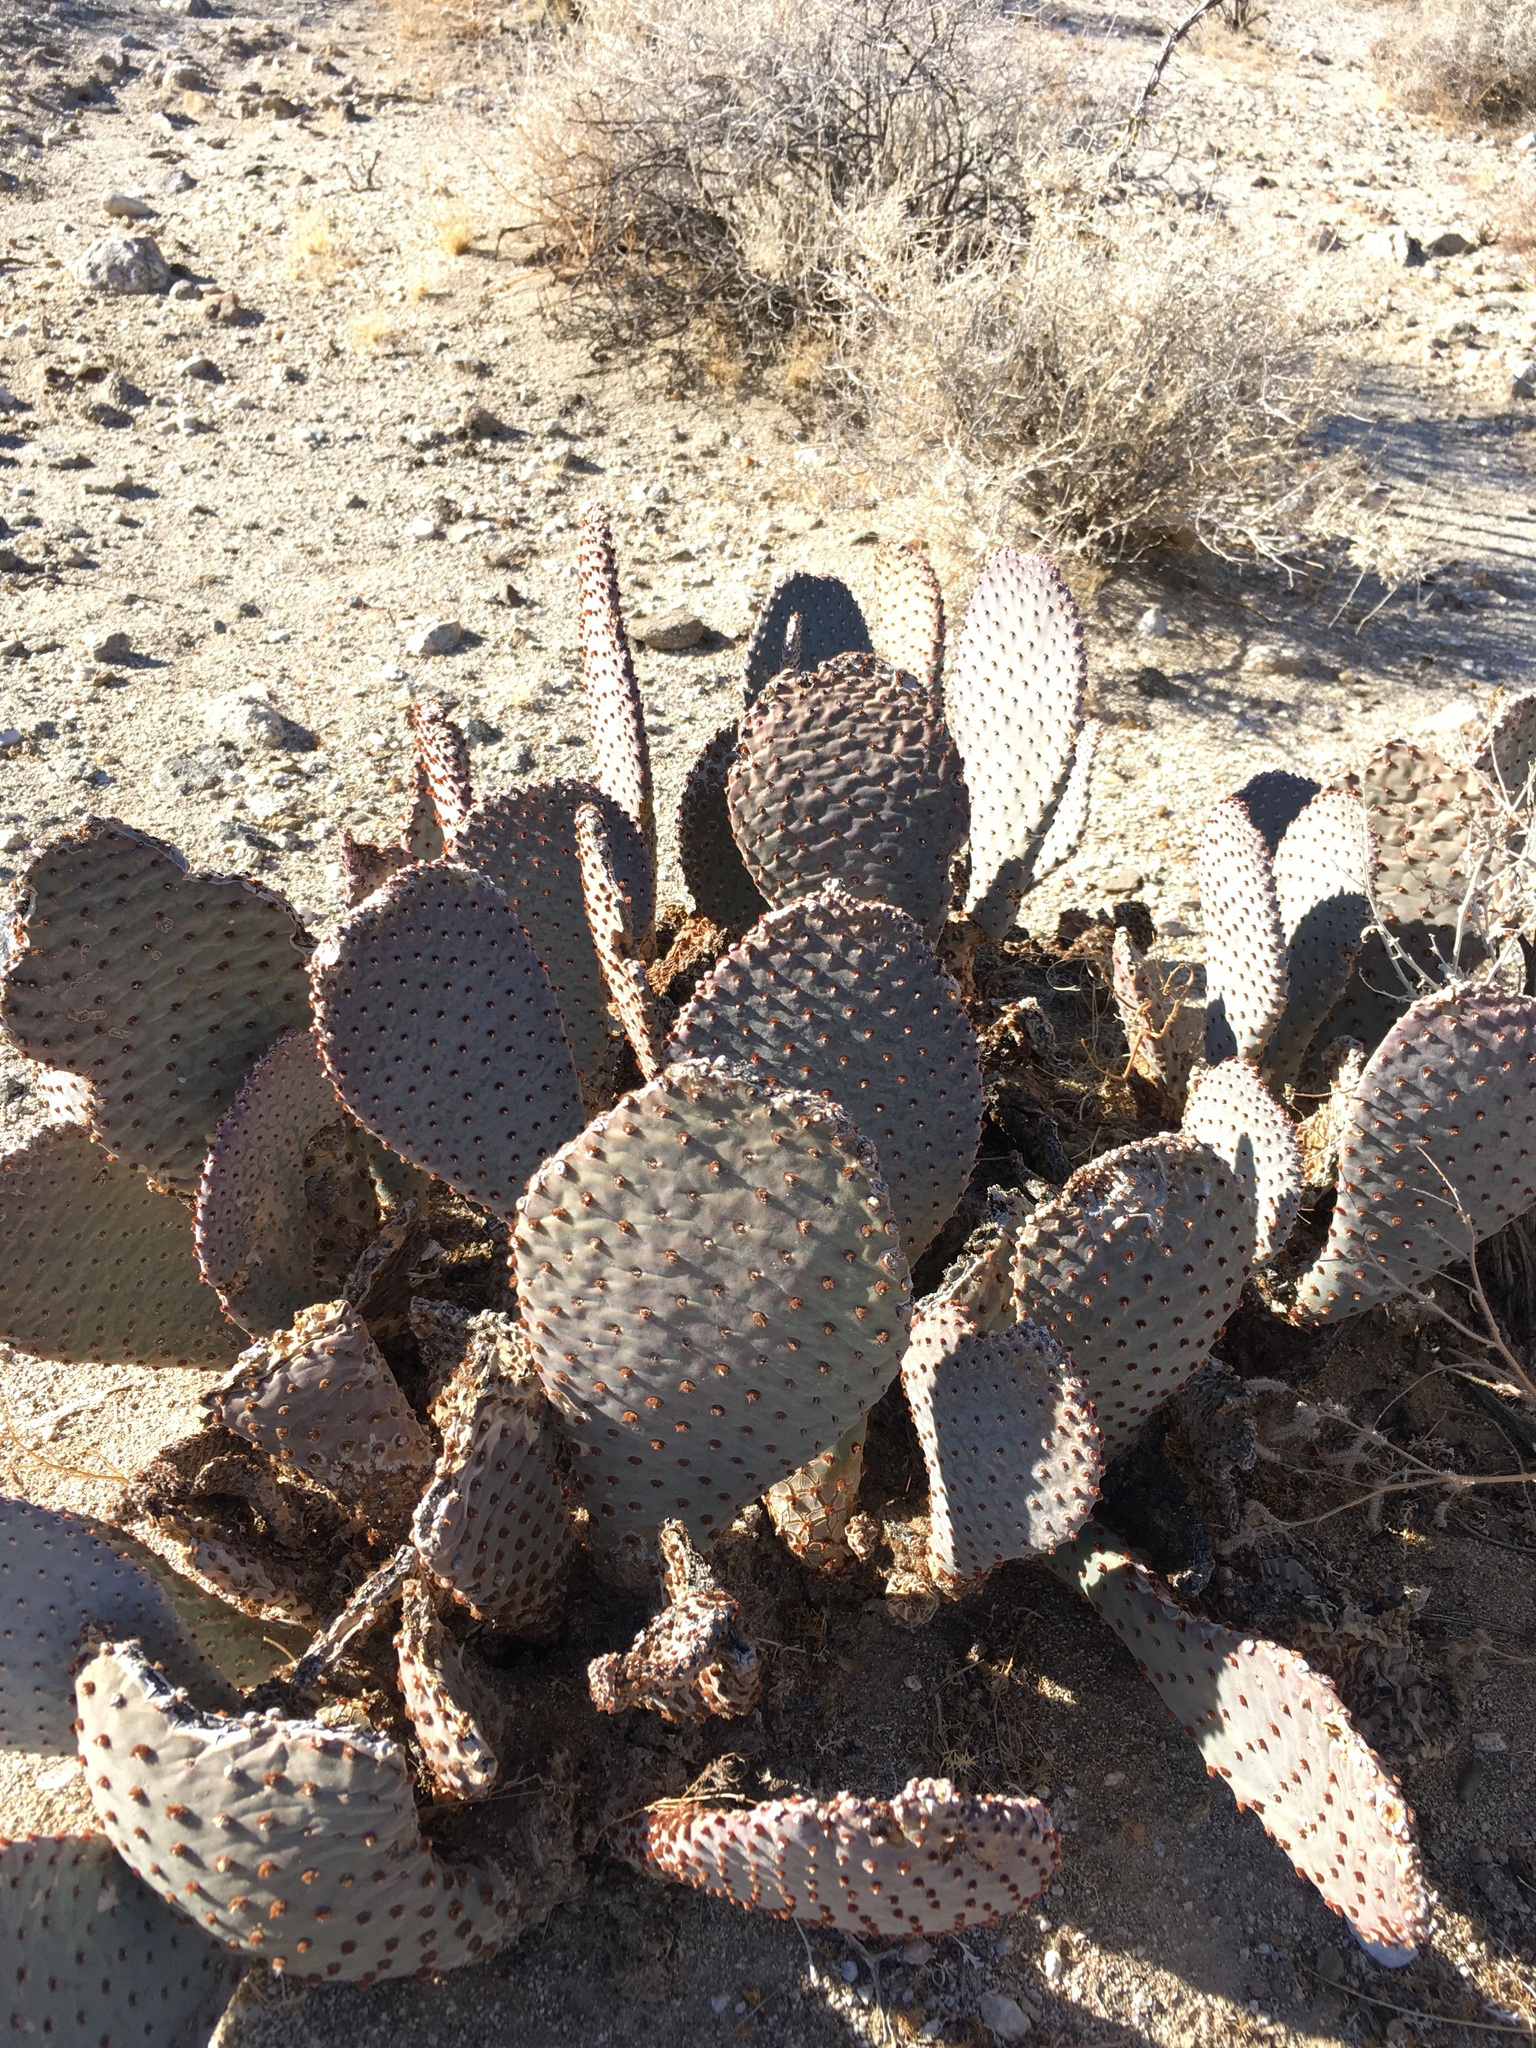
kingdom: Plantae
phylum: Tracheophyta
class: Magnoliopsida
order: Caryophyllales
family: Cactaceae
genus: Opuntia
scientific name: Opuntia basilaris
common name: Beavertail prickly-pear
